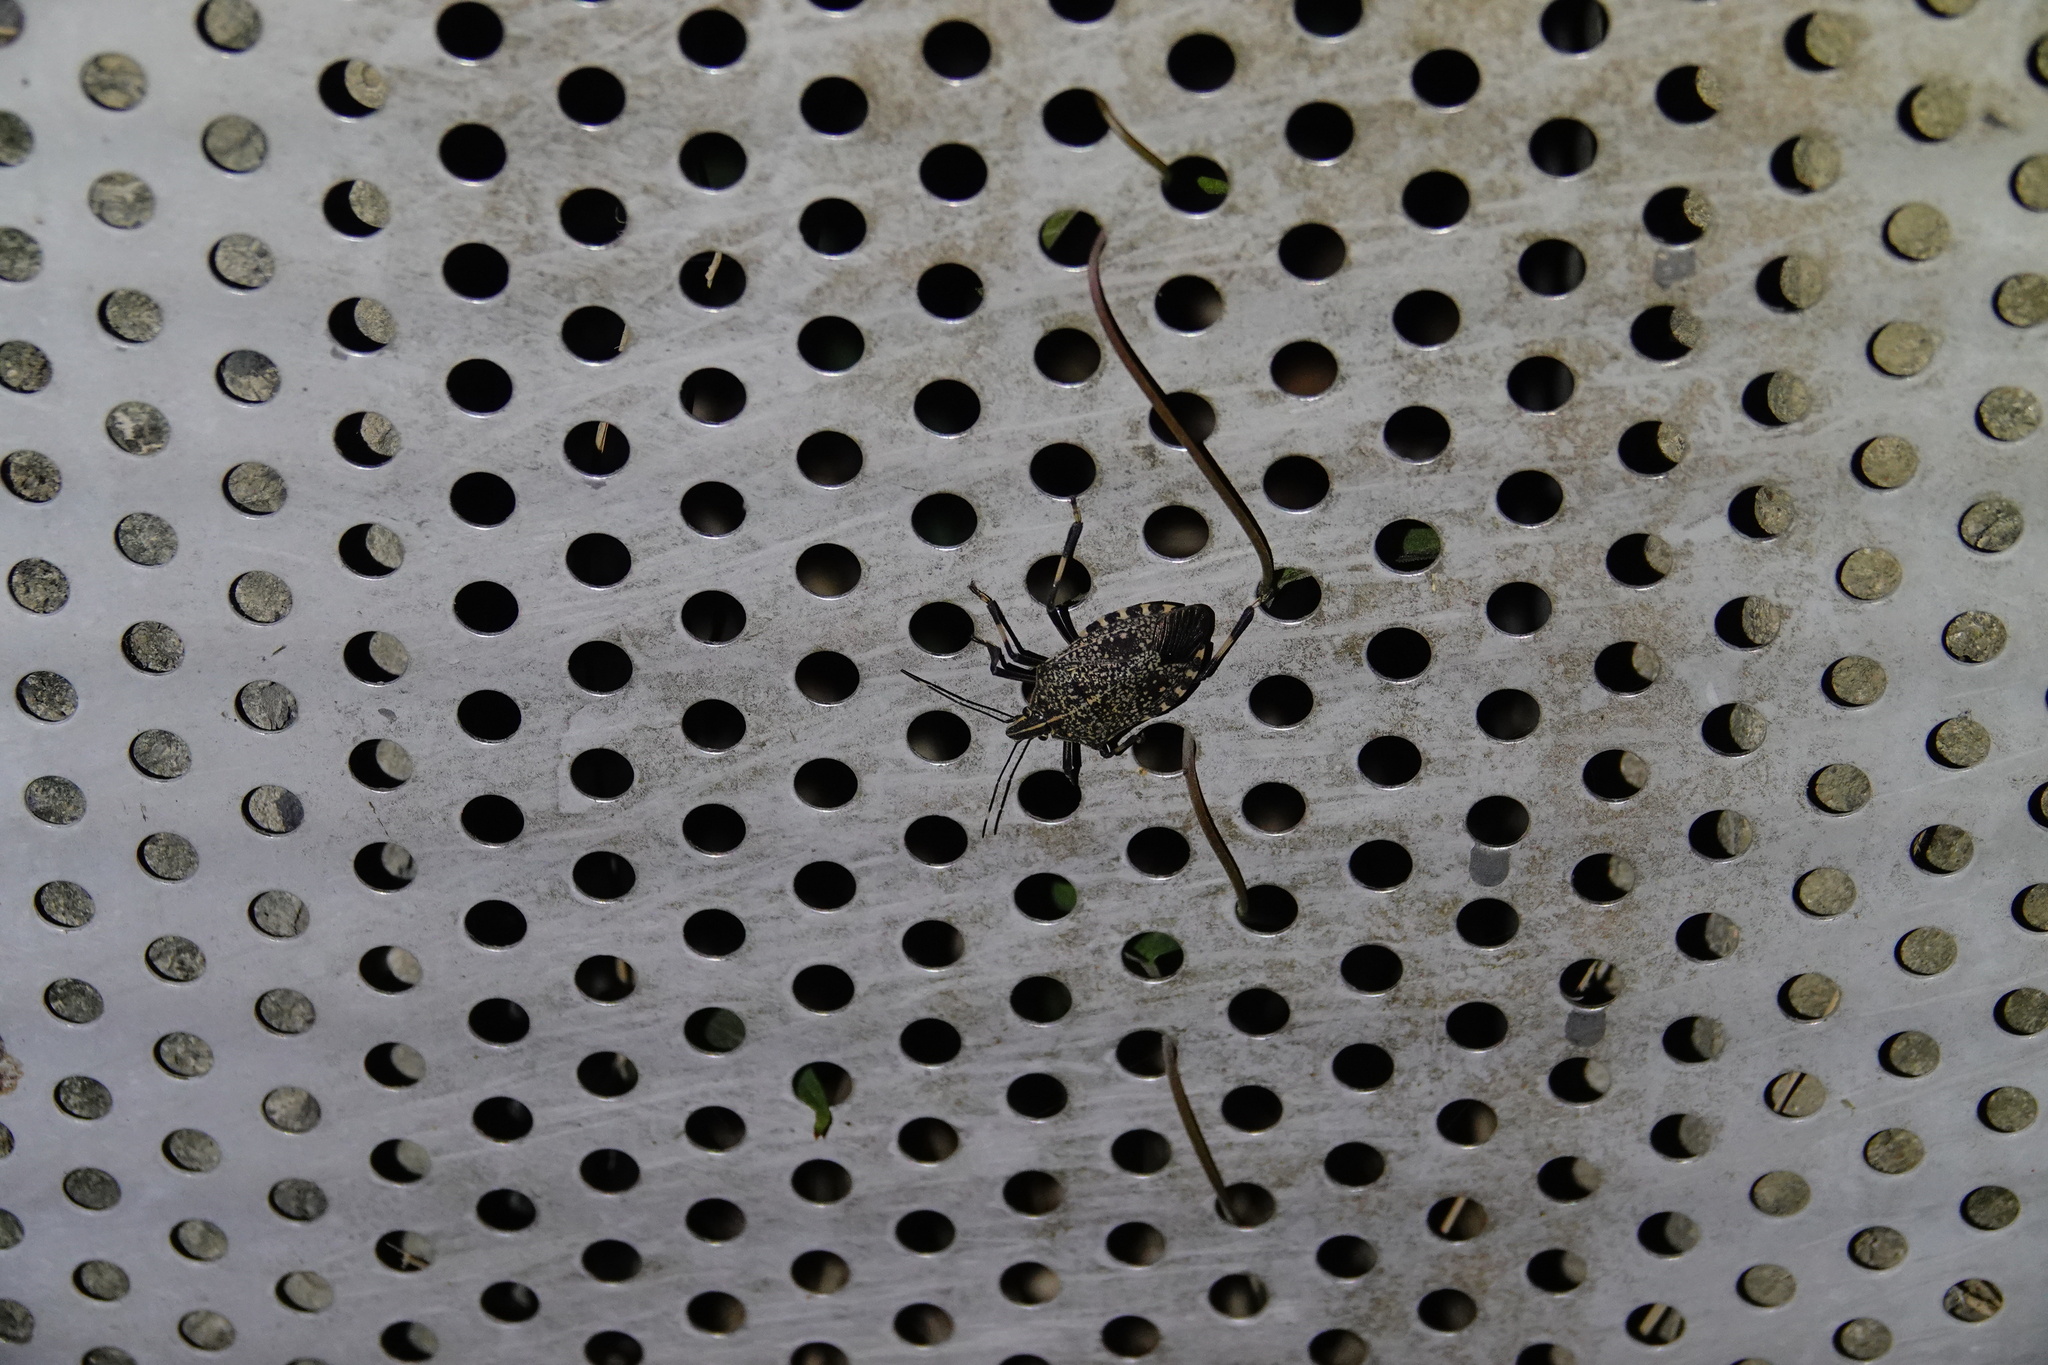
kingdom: Animalia
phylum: Arthropoda
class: Insecta
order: Hemiptera
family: Pentatomidae
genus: Erthesina
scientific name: Erthesina fullo
